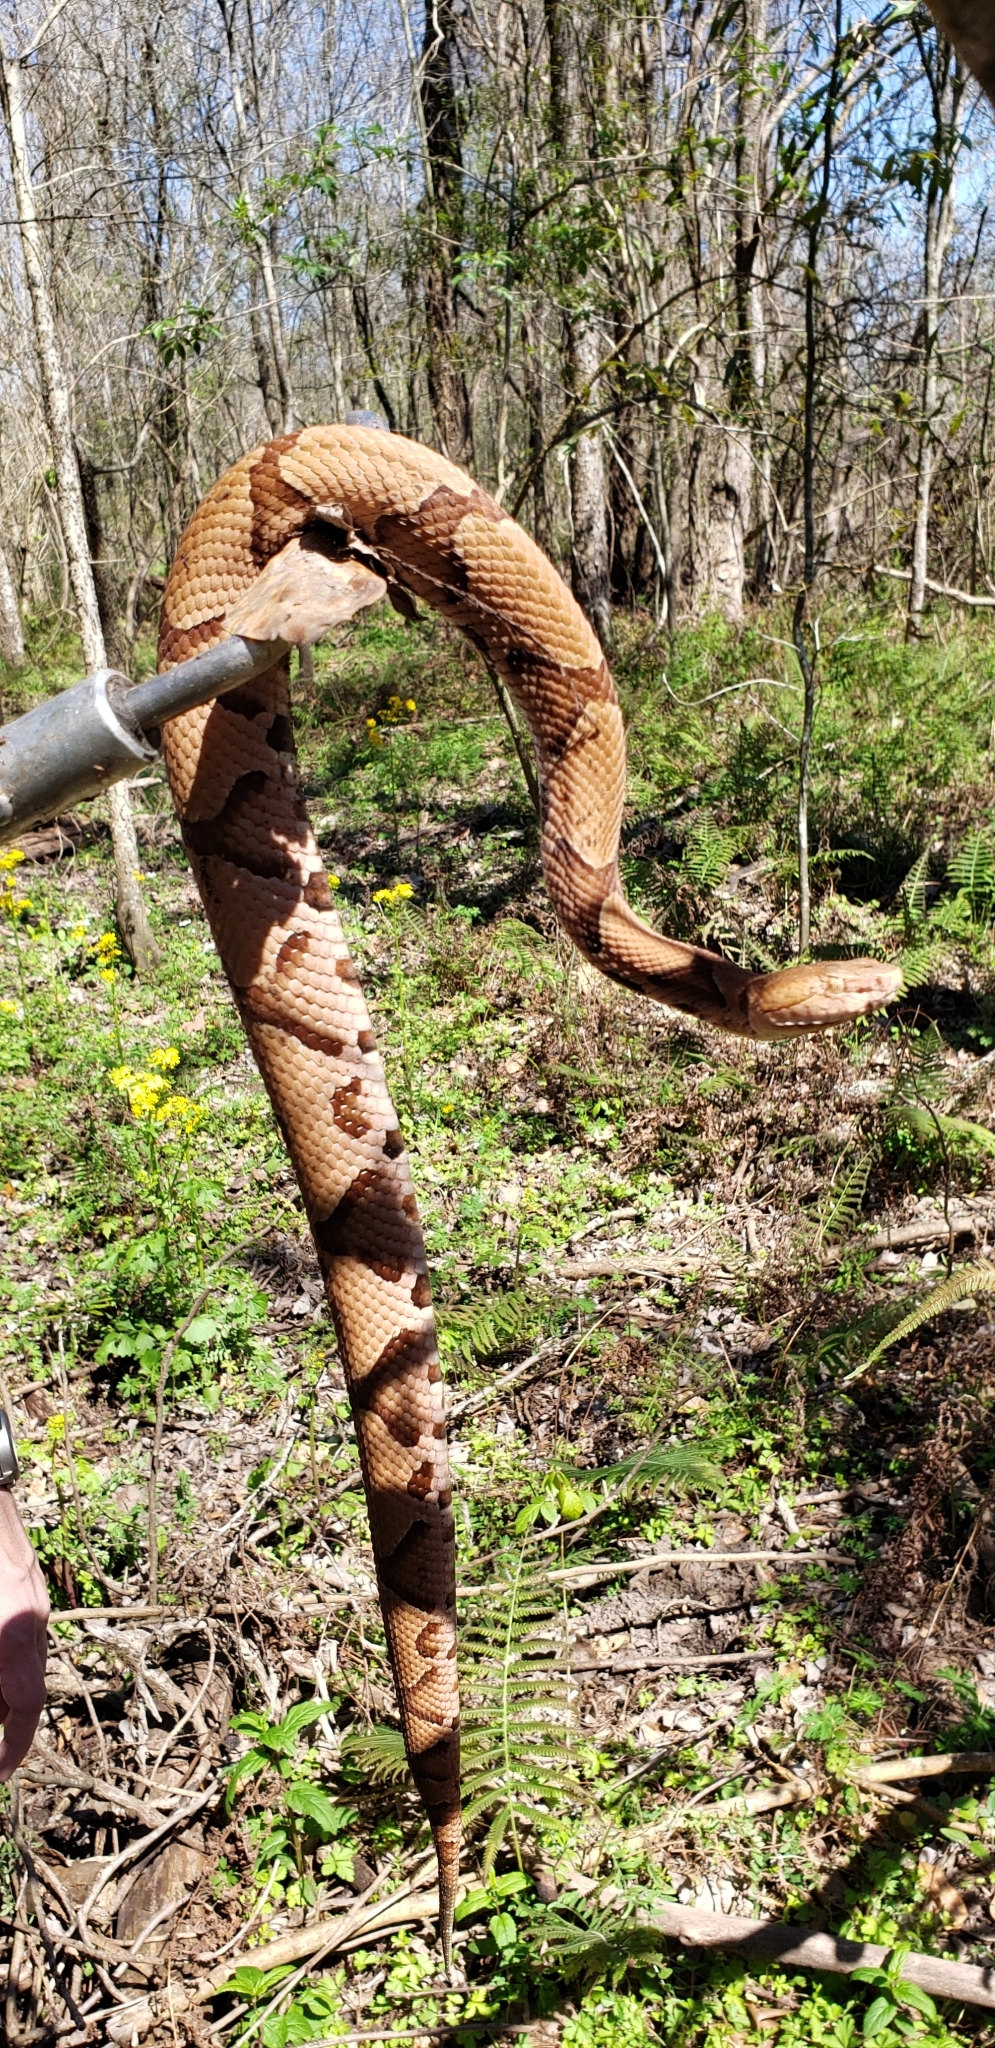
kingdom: Animalia
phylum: Chordata
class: Squamata
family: Viperidae
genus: Agkistrodon
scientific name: Agkistrodon contortrix
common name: Northern copperhead
